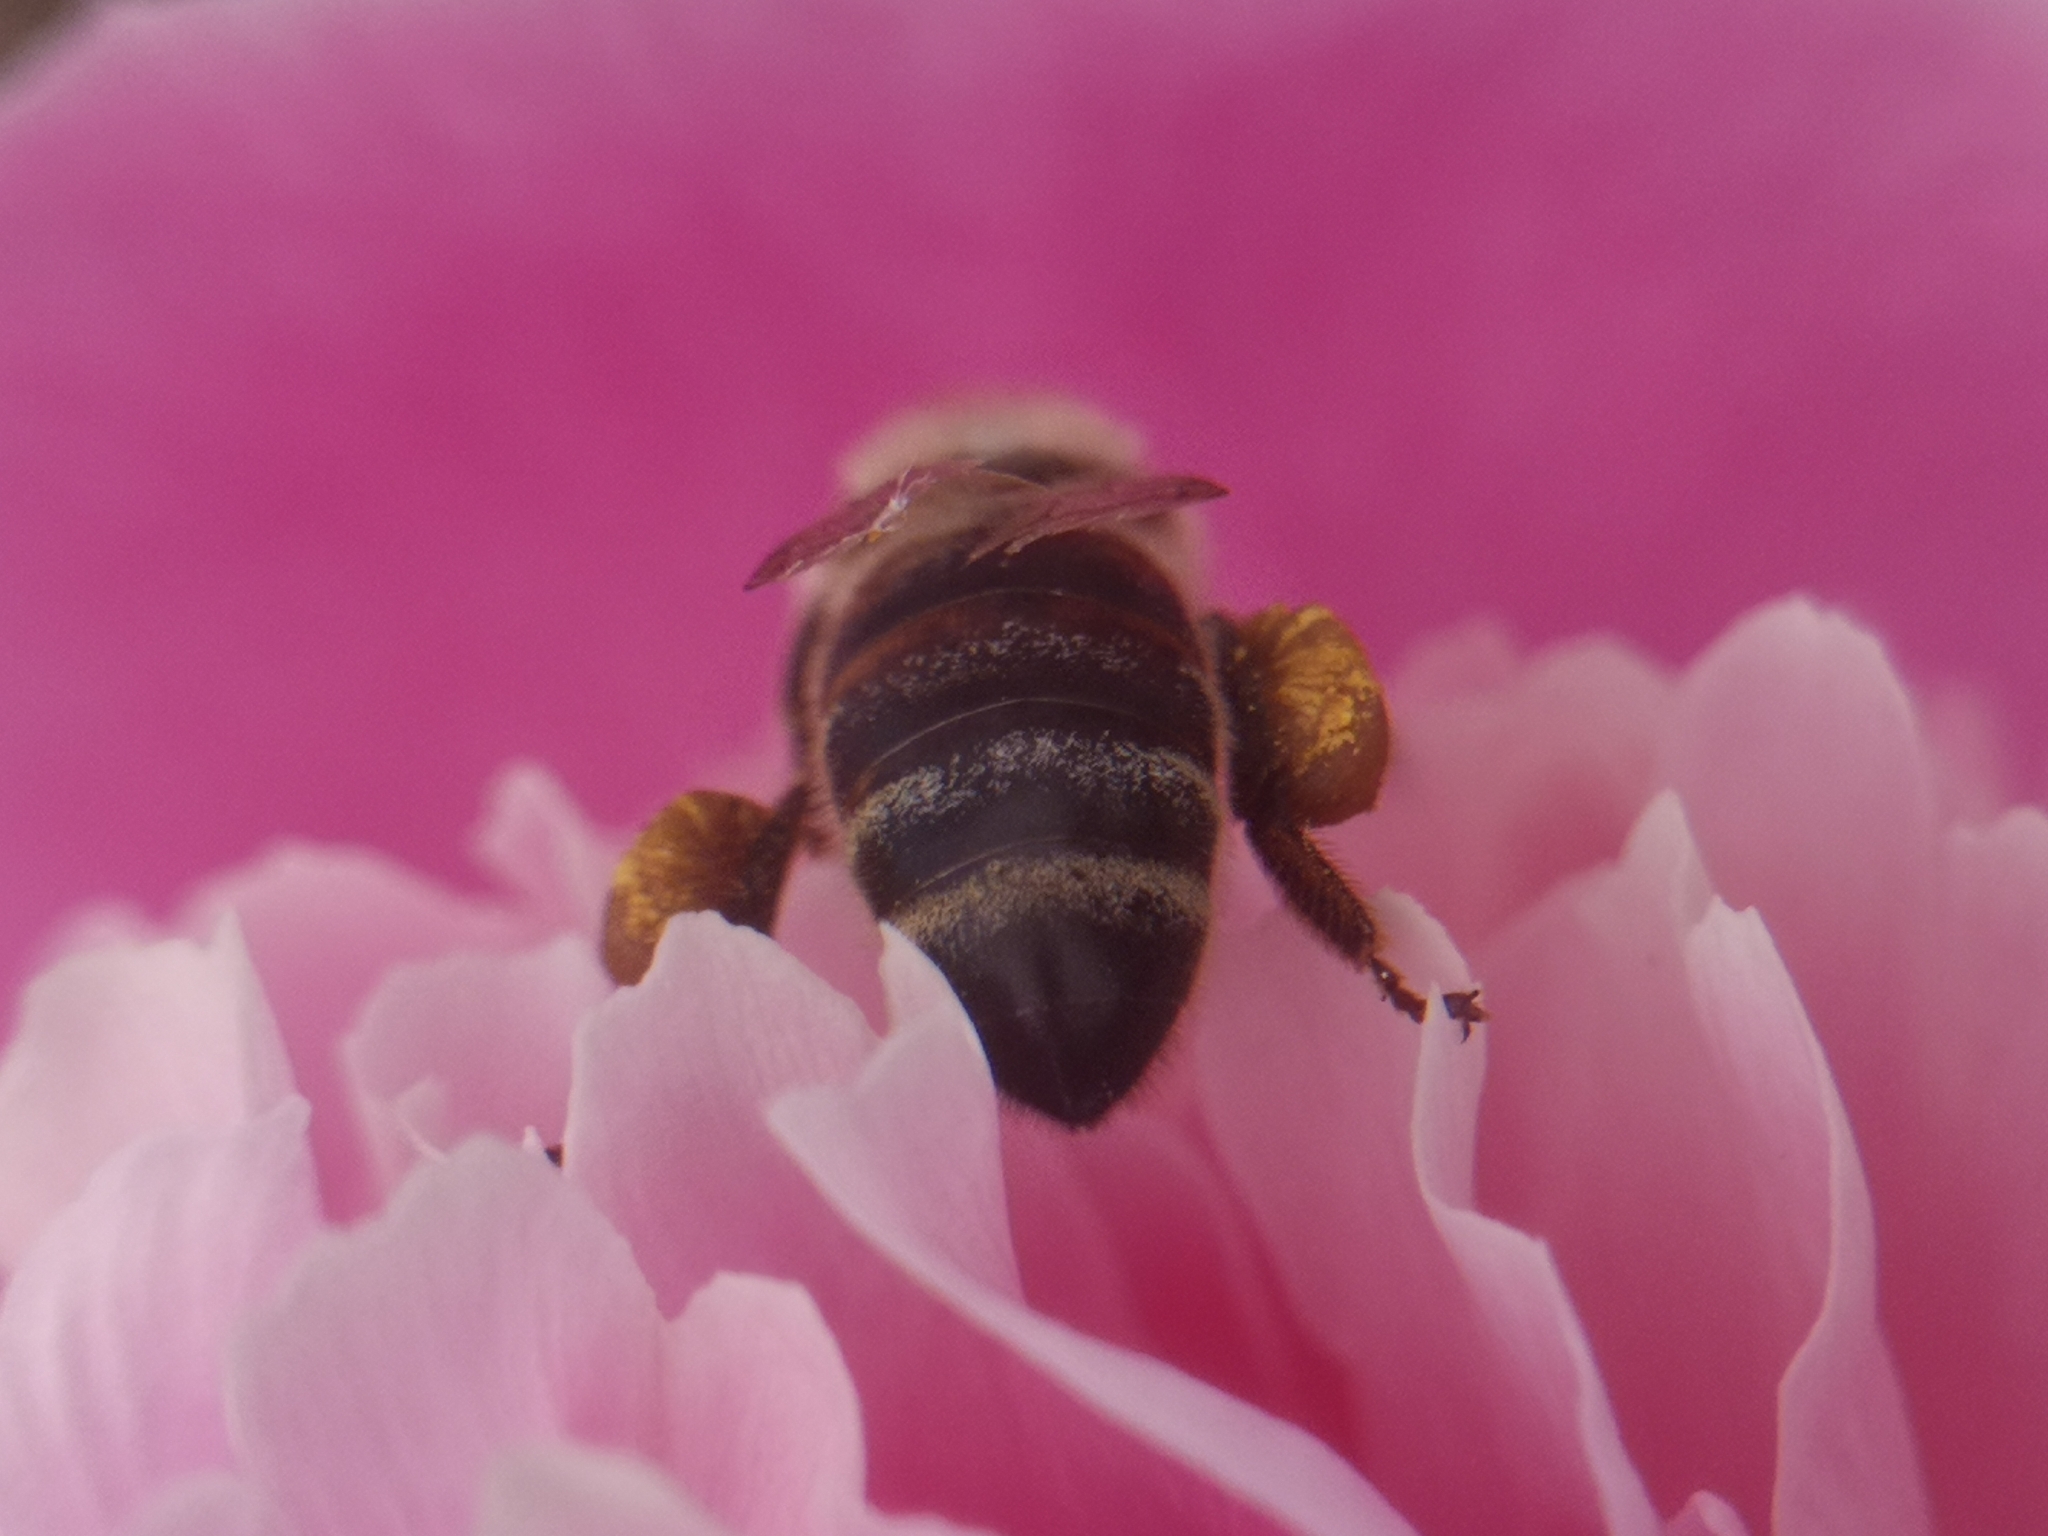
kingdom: Animalia
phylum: Arthropoda
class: Insecta
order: Hymenoptera
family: Apidae
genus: Apis
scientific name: Apis mellifera
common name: Honey bee
